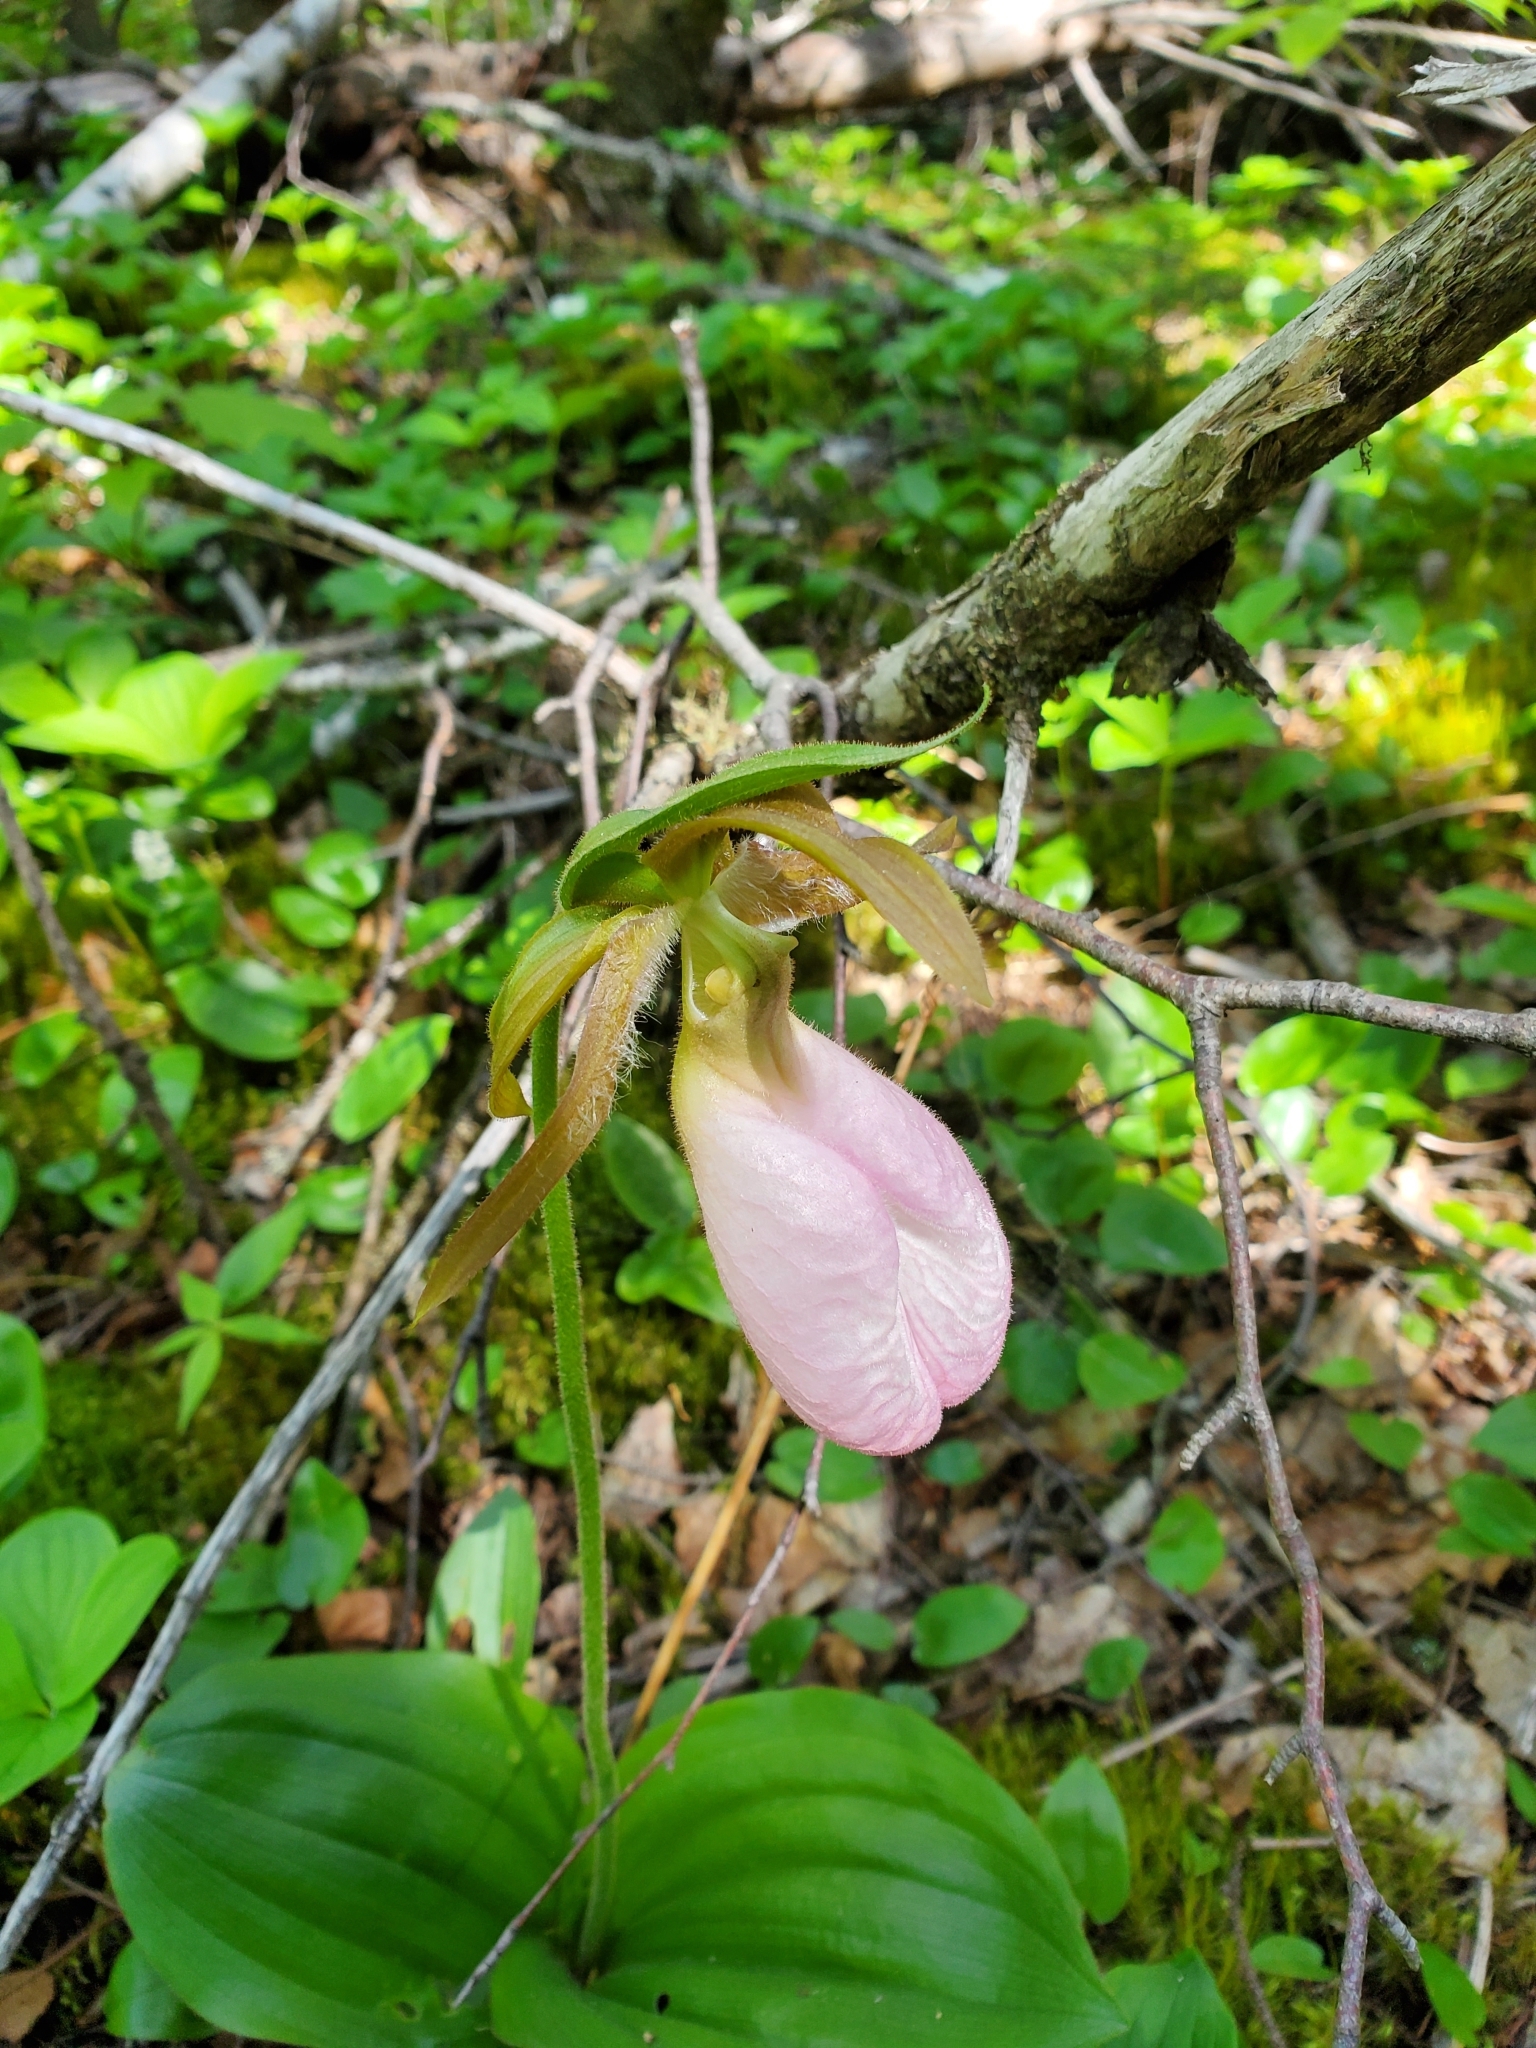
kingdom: Plantae
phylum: Tracheophyta
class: Liliopsida
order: Asparagales
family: Orchidaceae
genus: Cypripedium
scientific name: Cypripedium acaule
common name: Pink lady's-slipper
